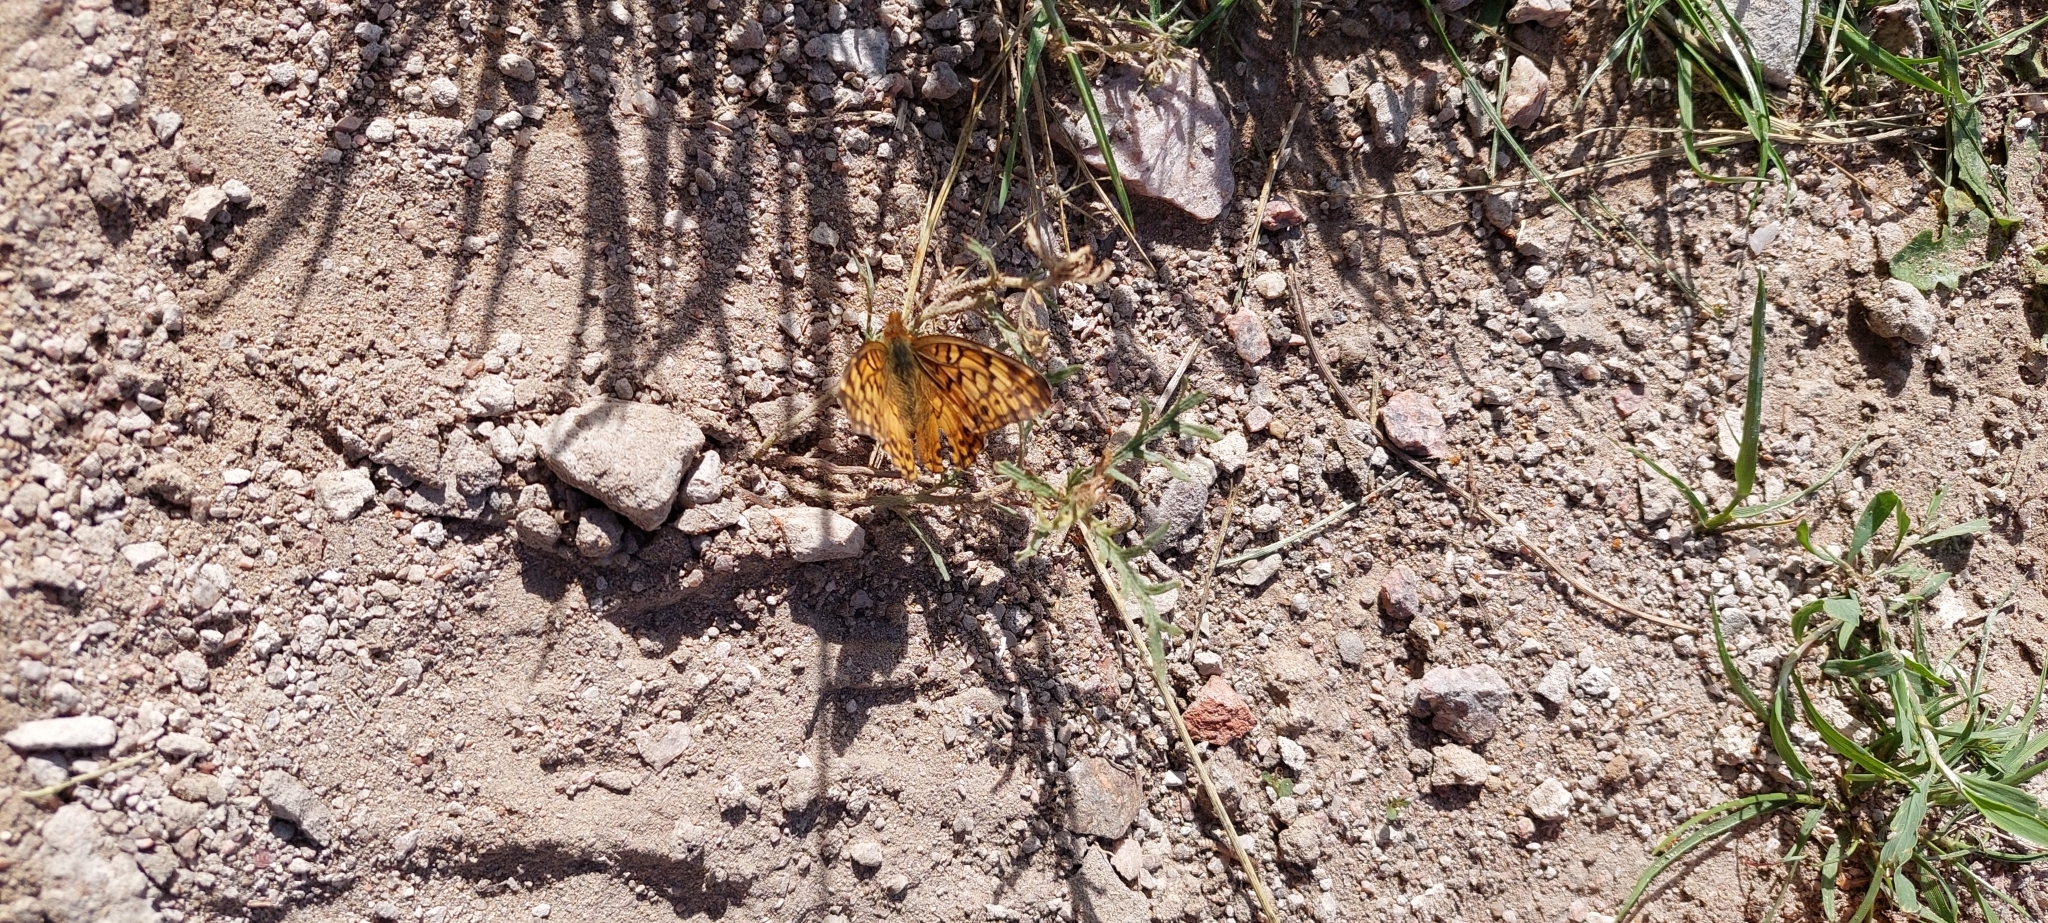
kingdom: Animalia
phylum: Arthropoda
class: Insecta
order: Lepidoptera
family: Nymphalidae
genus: Euptoieta
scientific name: Euptoieta hortensia
